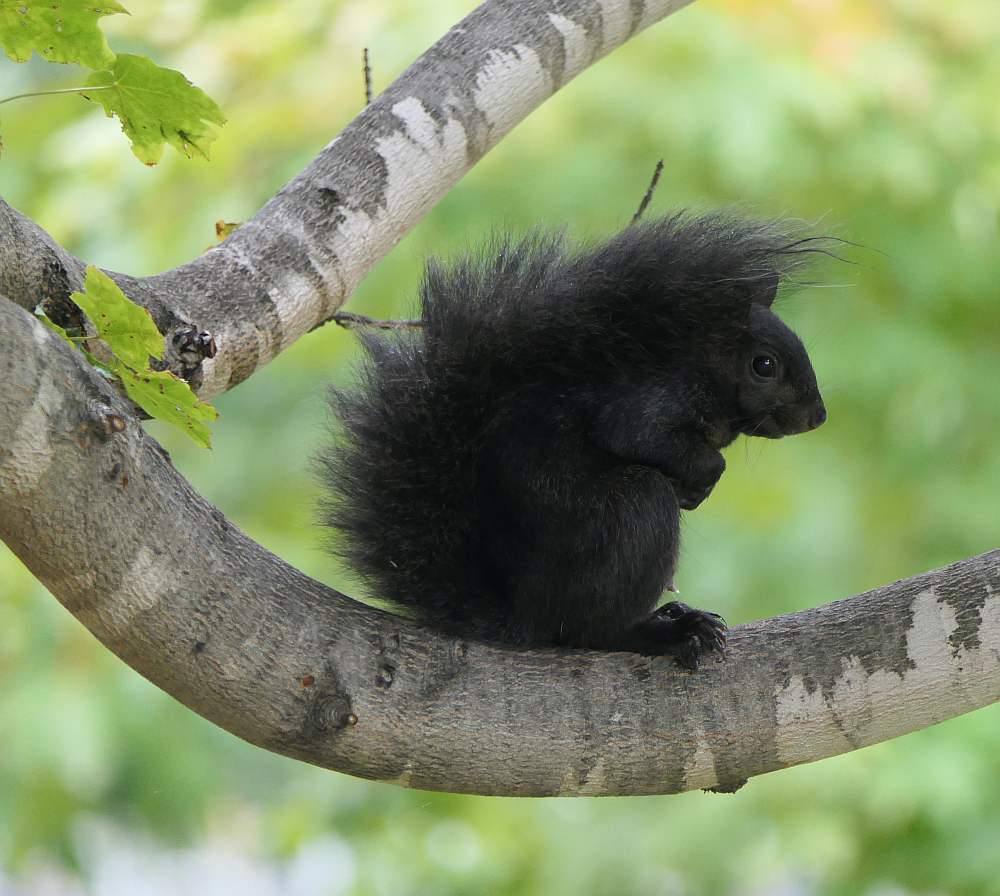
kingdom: Animalia
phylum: Chordata
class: Mammalia
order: Rodentia
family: Sciuridae
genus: Sciurus
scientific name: Sciurus carolinensis
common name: Eastern gray squirrel
